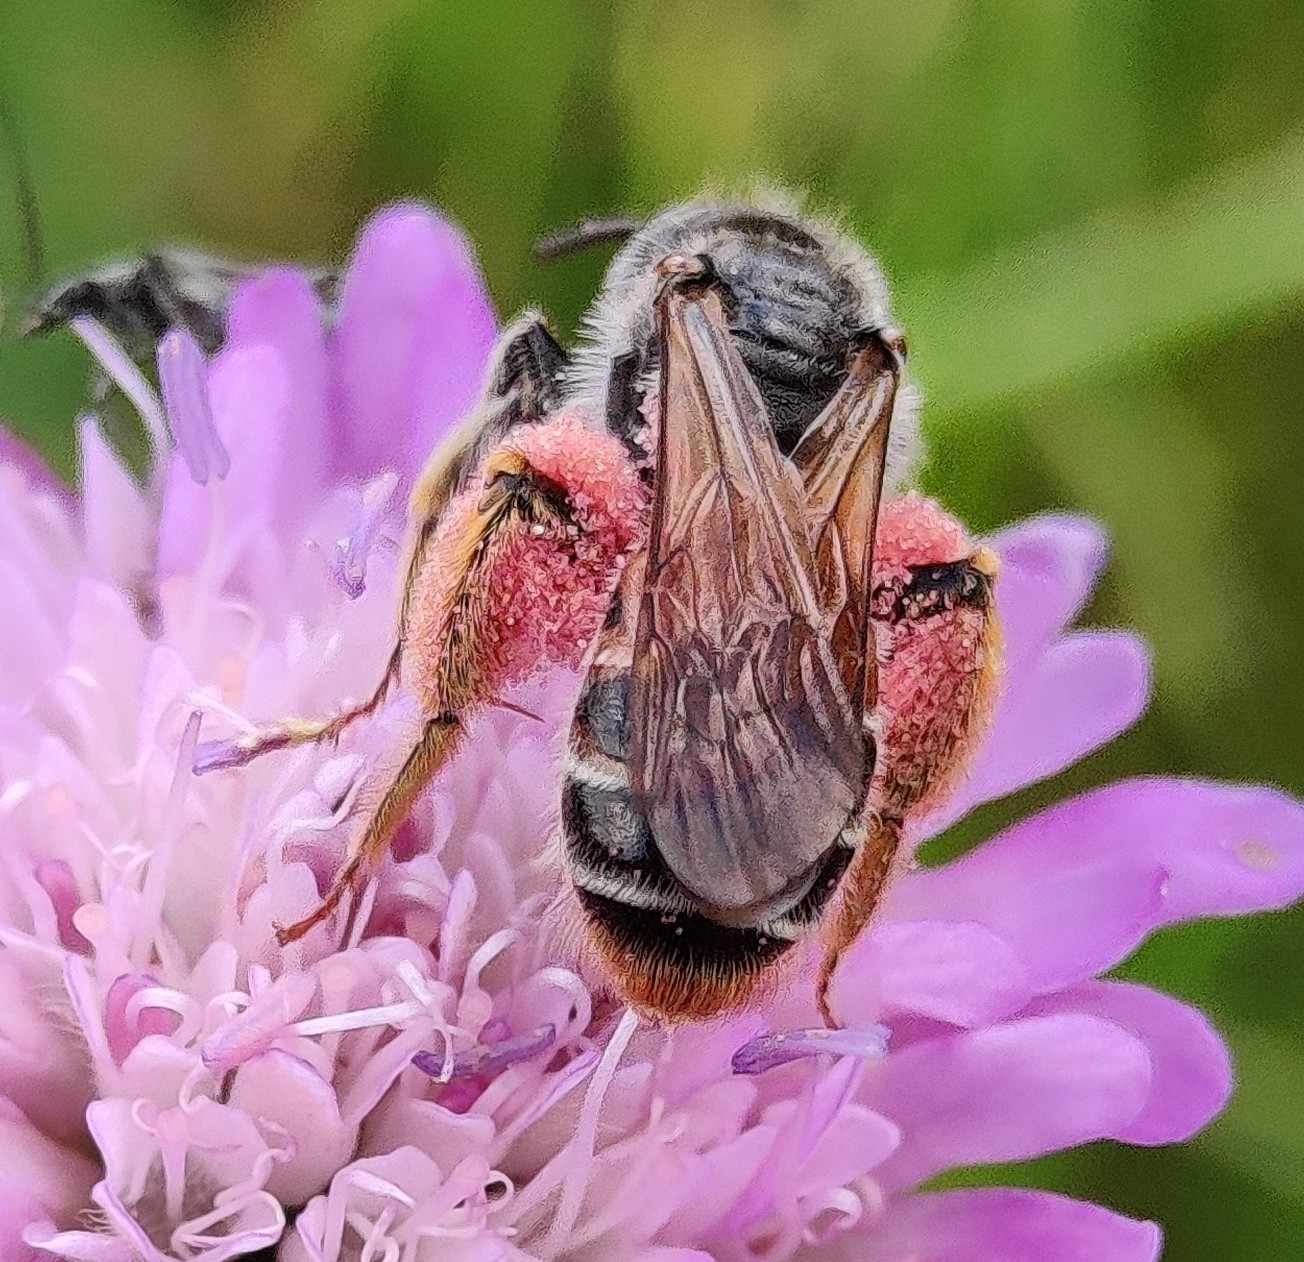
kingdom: Animalia
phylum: Arthropoda
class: Insecta
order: Hymenoptera
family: Andrenidae
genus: Andrena
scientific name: Andrena hattorfiana
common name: Large scabious mining bee
